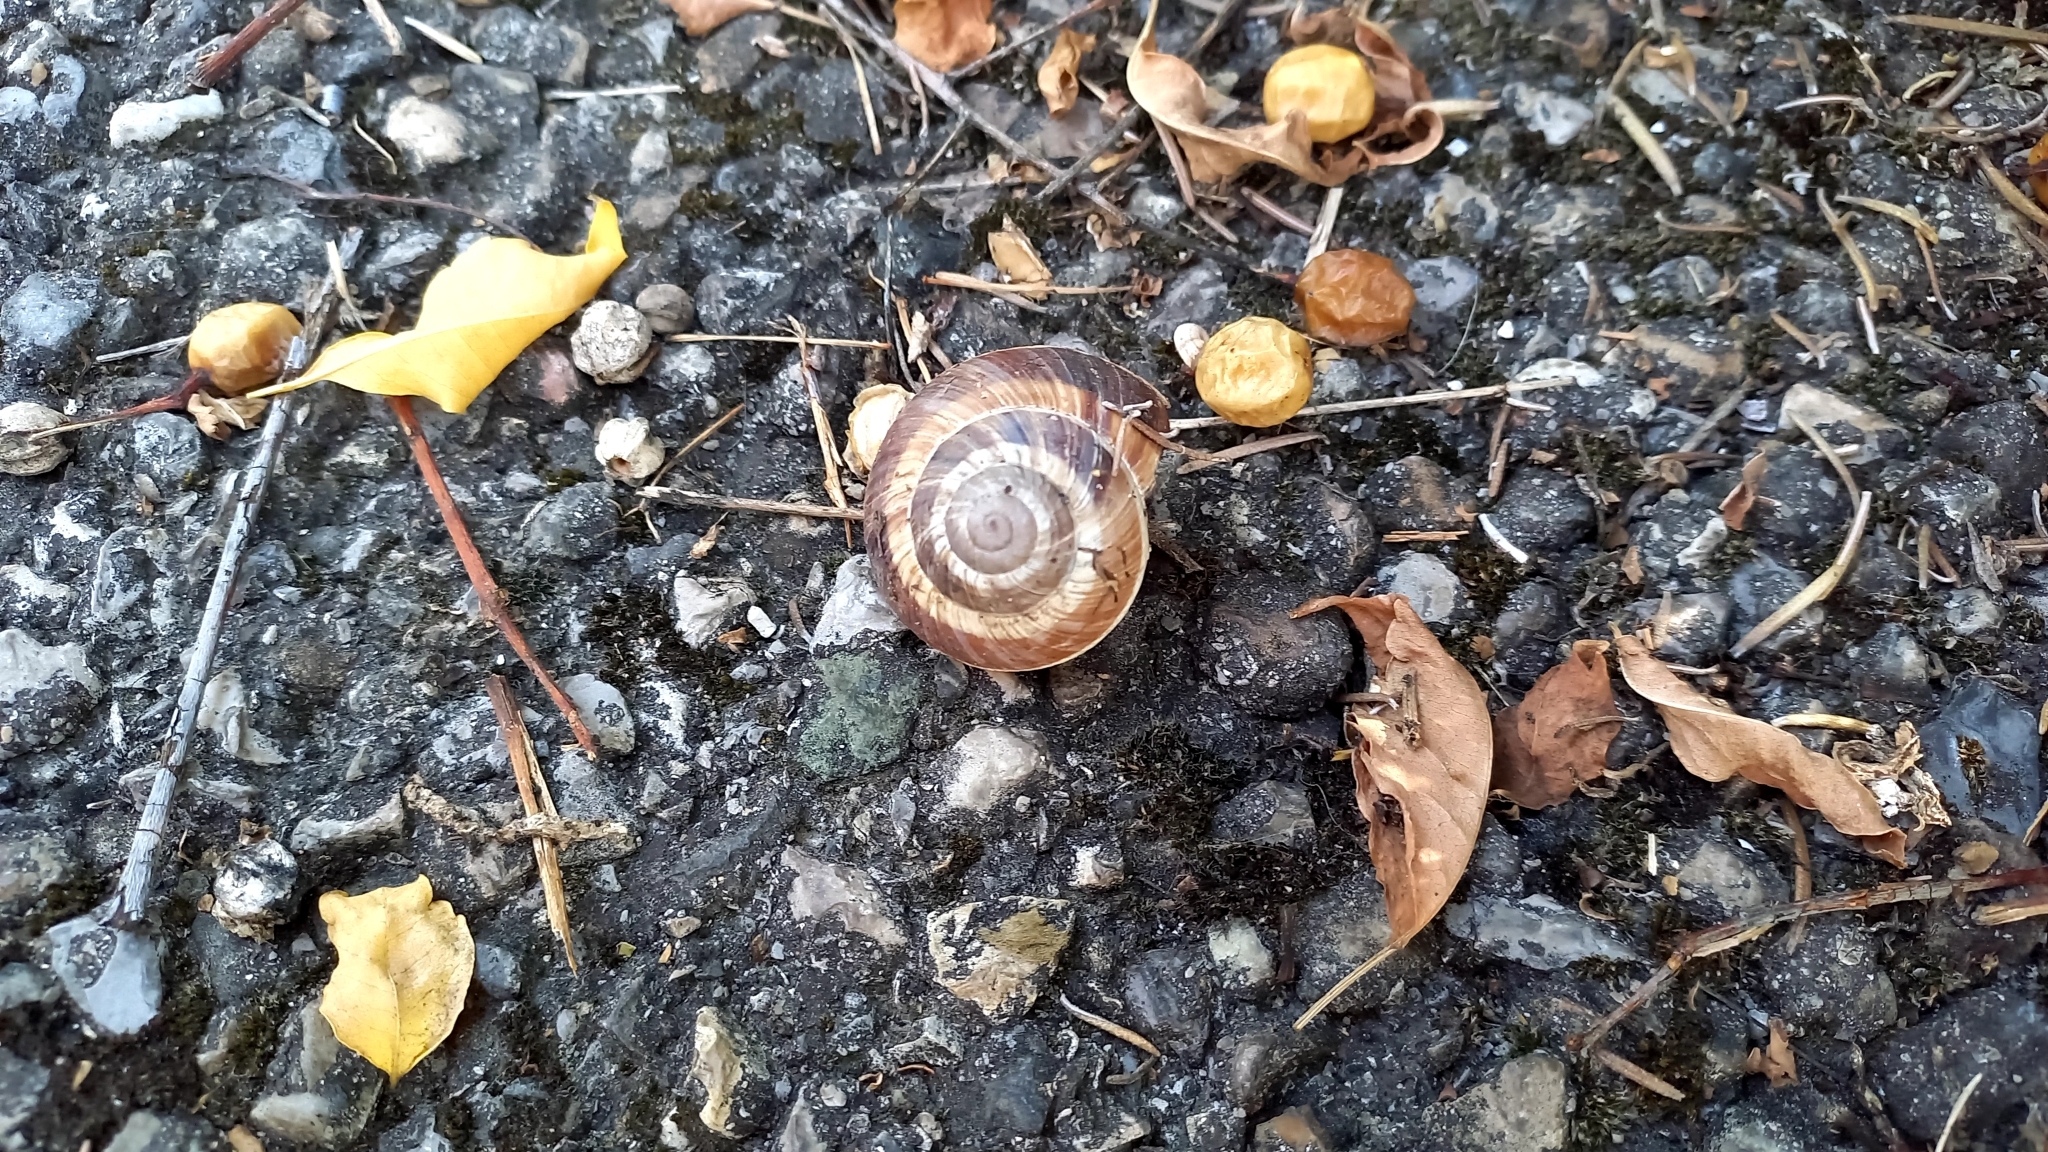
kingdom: Animalia
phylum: Mollusca
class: Gastropoda
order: Stylommatophora
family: Helicidae
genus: Helix
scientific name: Helix lucorum
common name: Turkish snail
